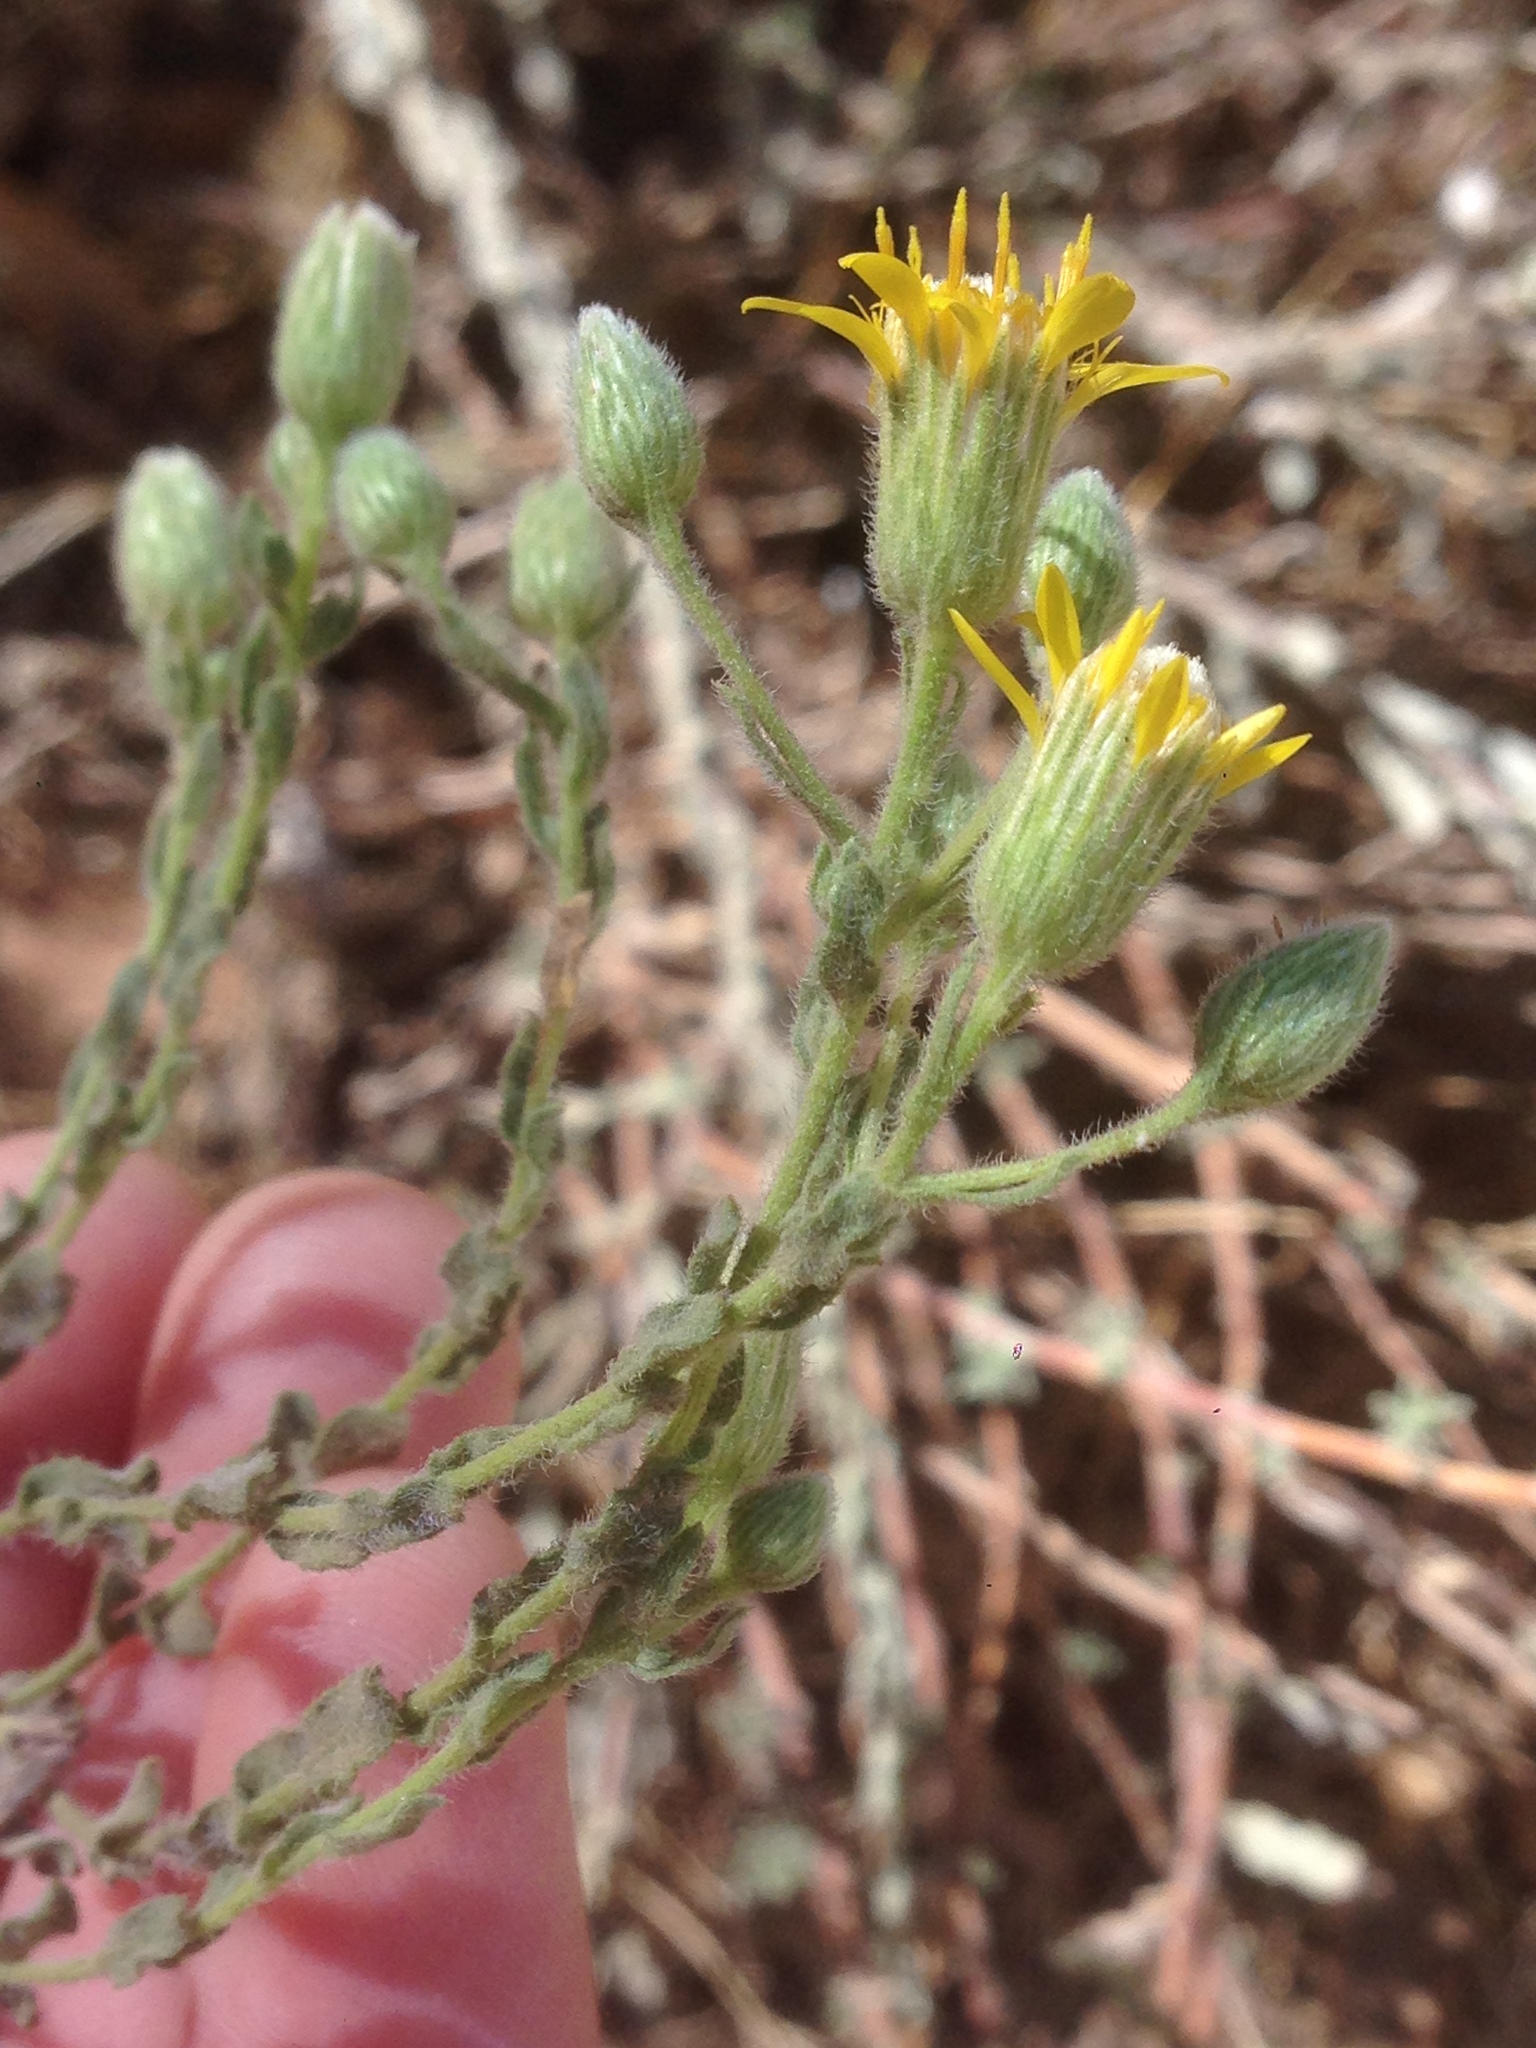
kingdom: Plantae
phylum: Tracheophyta
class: Magnoliopsida
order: Asterales
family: Asteraceae
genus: Heterotheca
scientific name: Heterotheca sessiliflora
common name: Sessile-flower golden-aster
